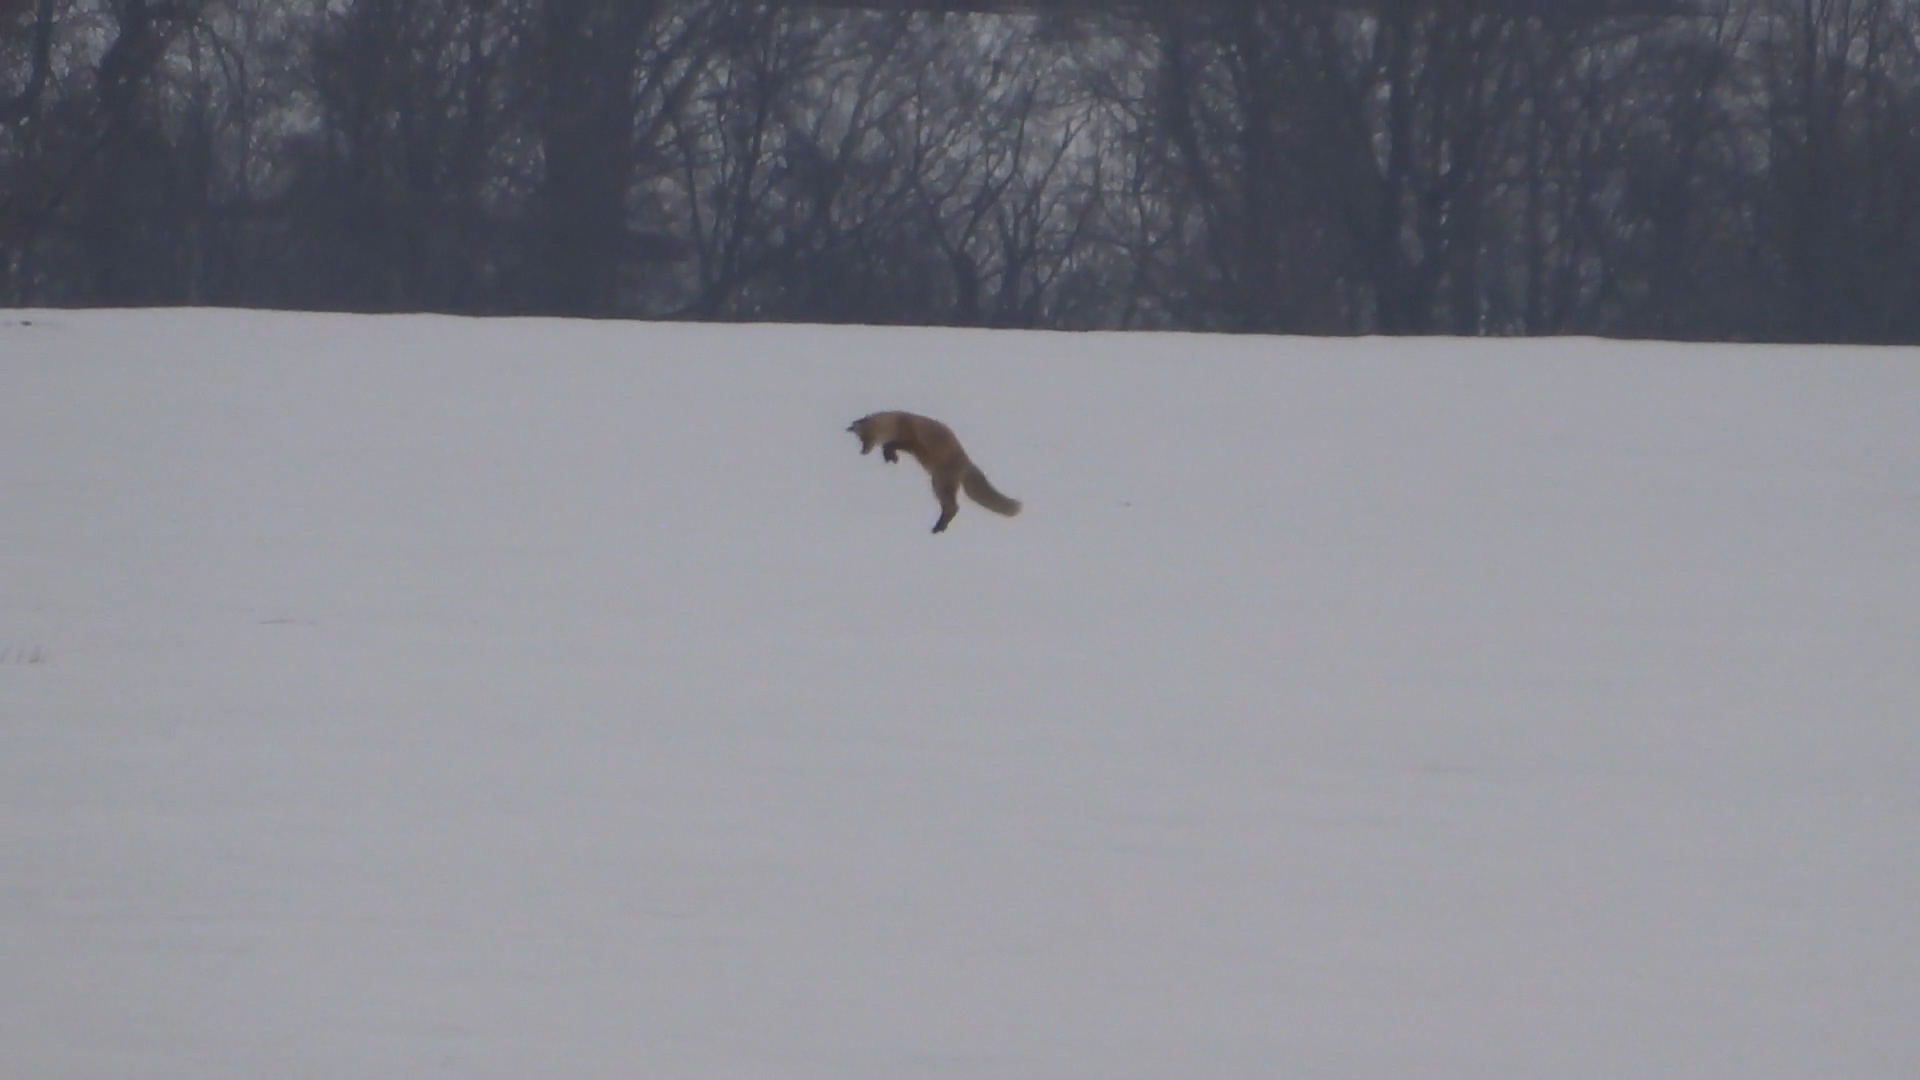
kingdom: Animalia
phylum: Chordata
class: Mammalia
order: Carnivora
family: Canidae
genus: Vulpes
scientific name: Vulpes vulpes
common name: Red fox
